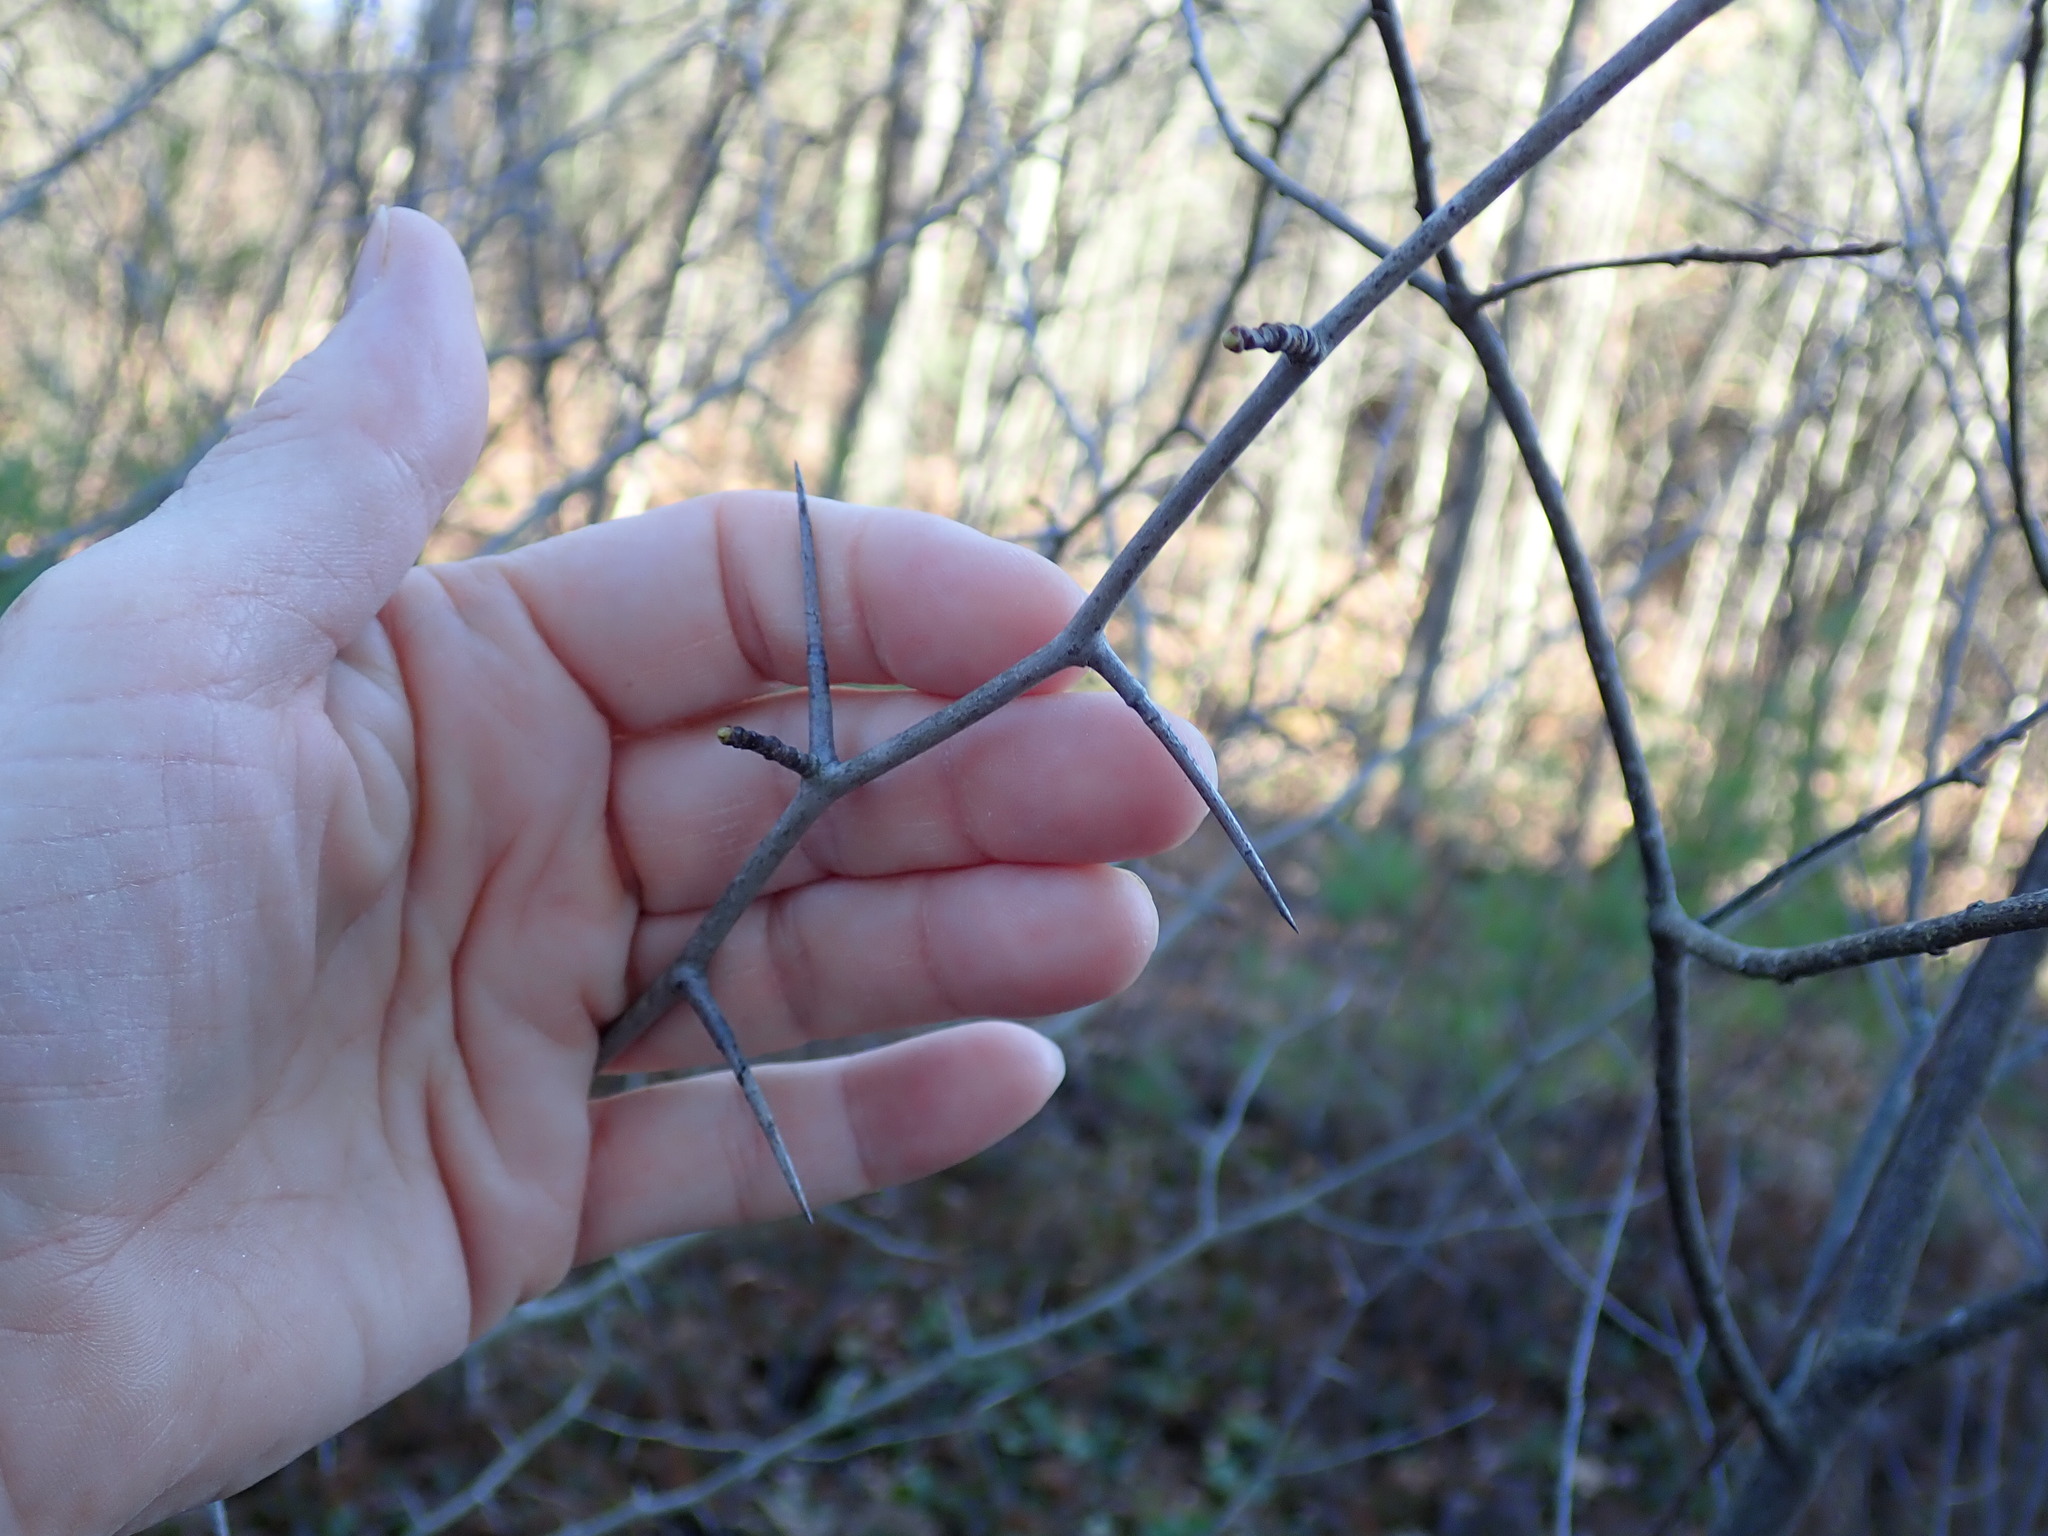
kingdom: Plantae
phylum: Tracheophyta
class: Magnoliopsida
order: Rosales
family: Rosaceae
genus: Crataegus
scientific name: Crataegus
